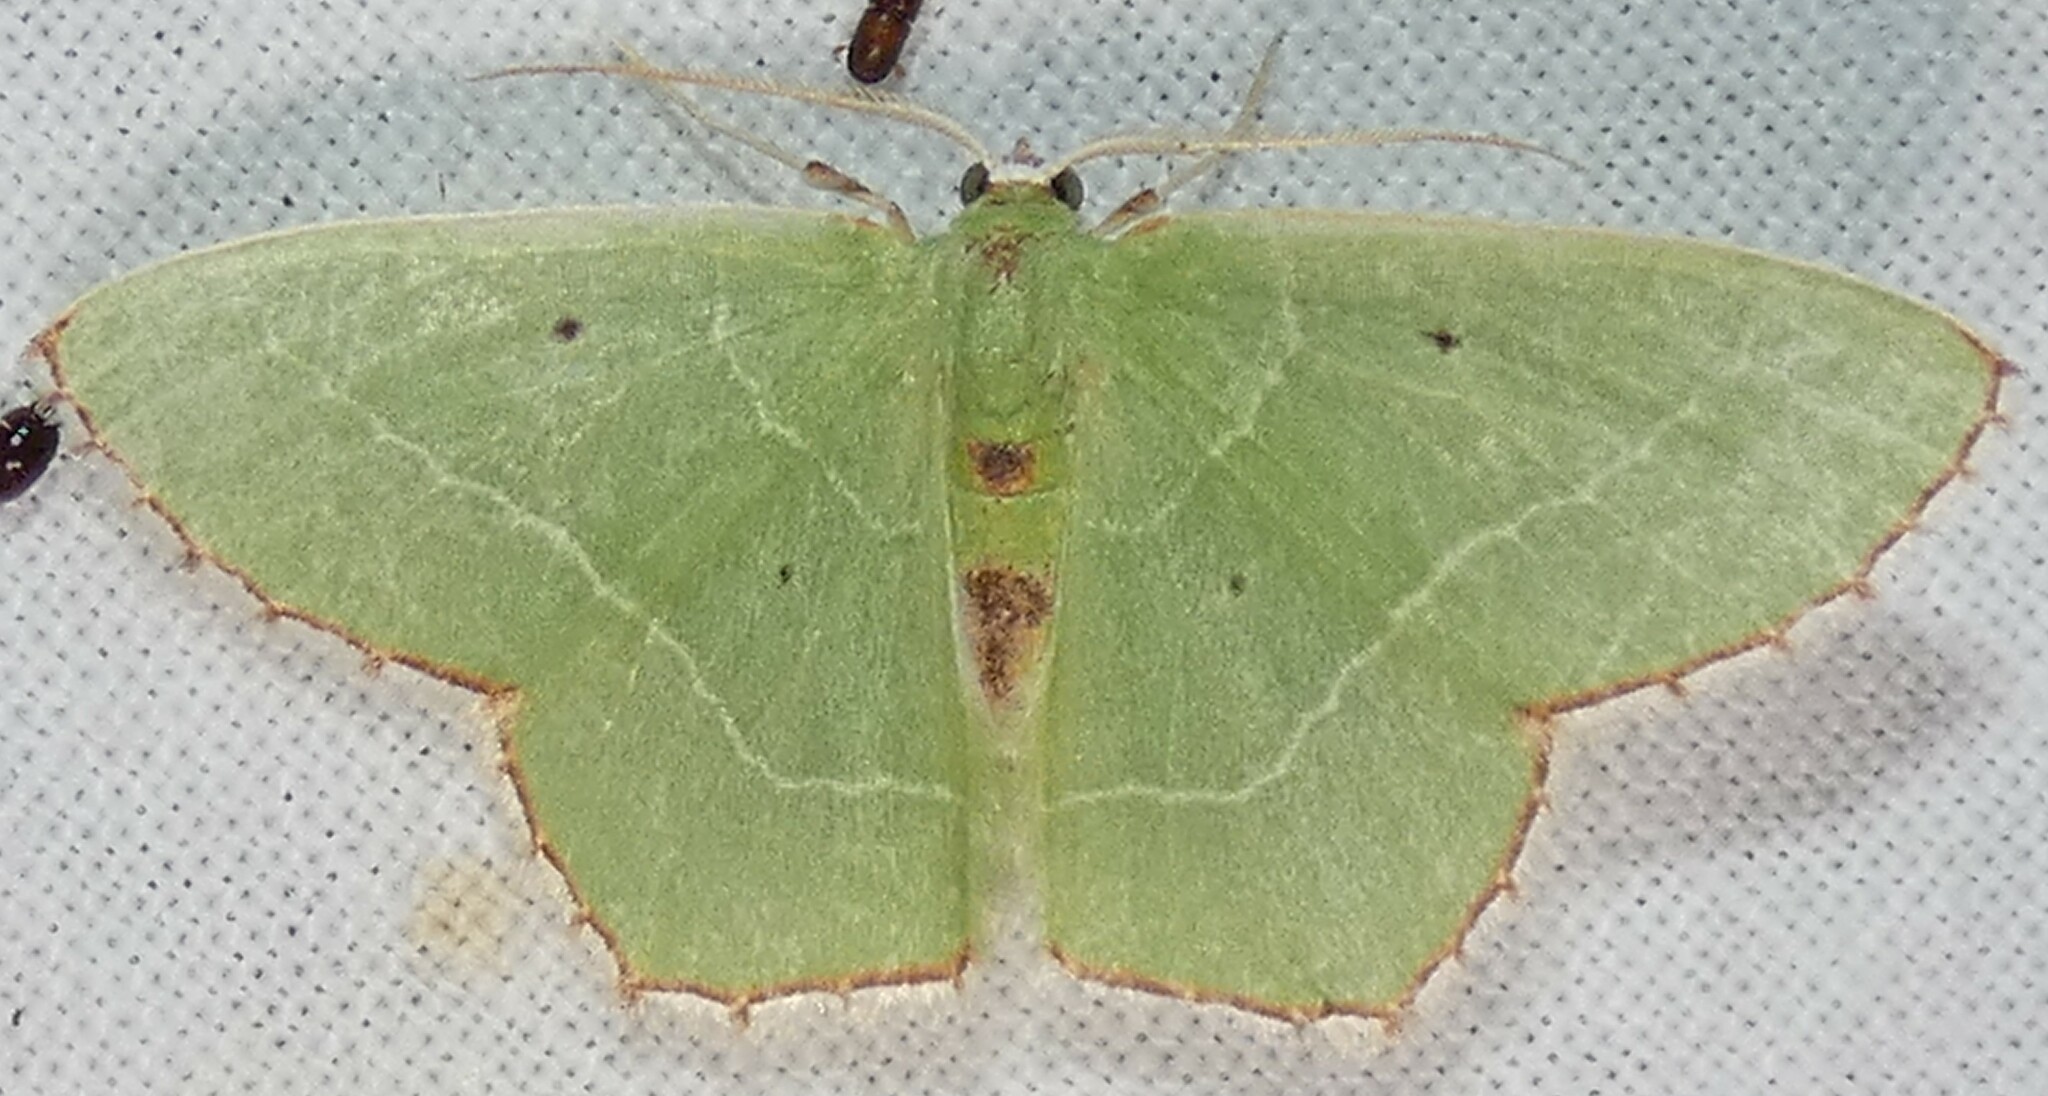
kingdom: Animalia
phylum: Arthropoda
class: Insecta
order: Lepidoptera
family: Geometridae
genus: Nemoria
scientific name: Nemoria saturiba
